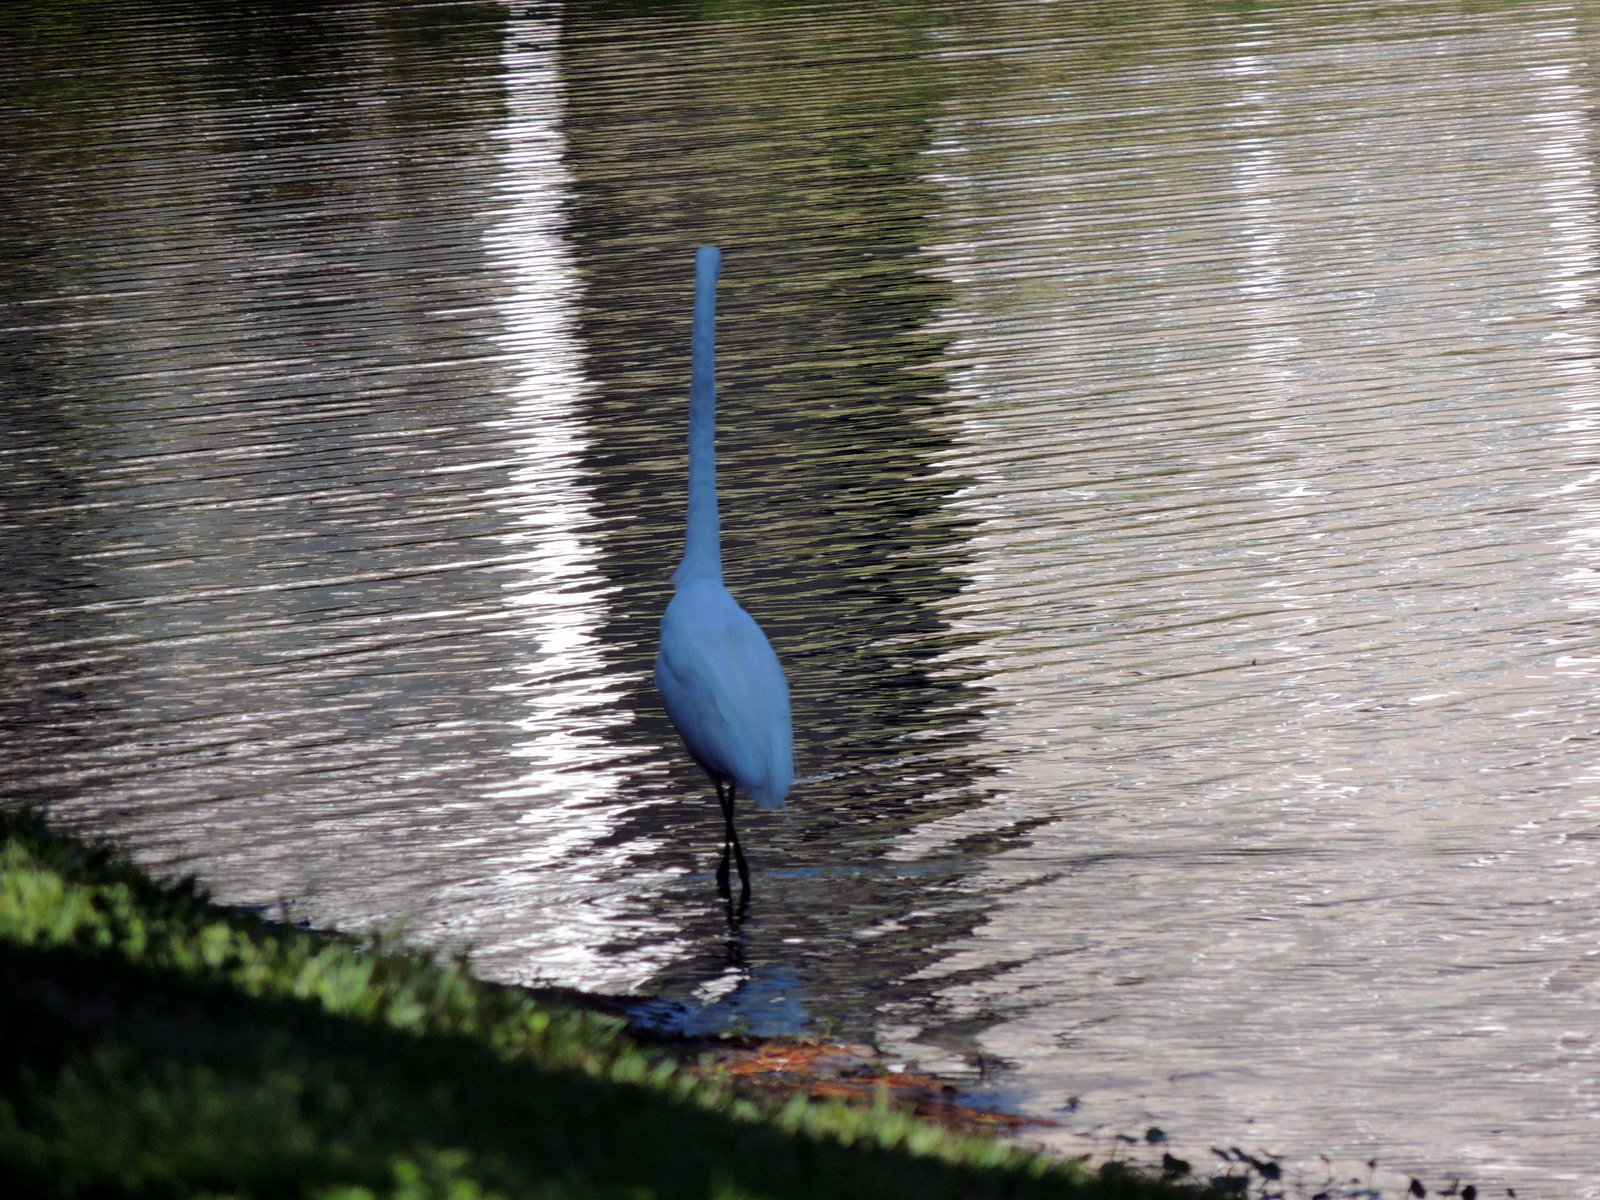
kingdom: Animalia
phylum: Chordata
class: Aves
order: Pelecaniformes
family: Ardeidae
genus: Ardea
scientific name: Ardea alba
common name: Great egret
